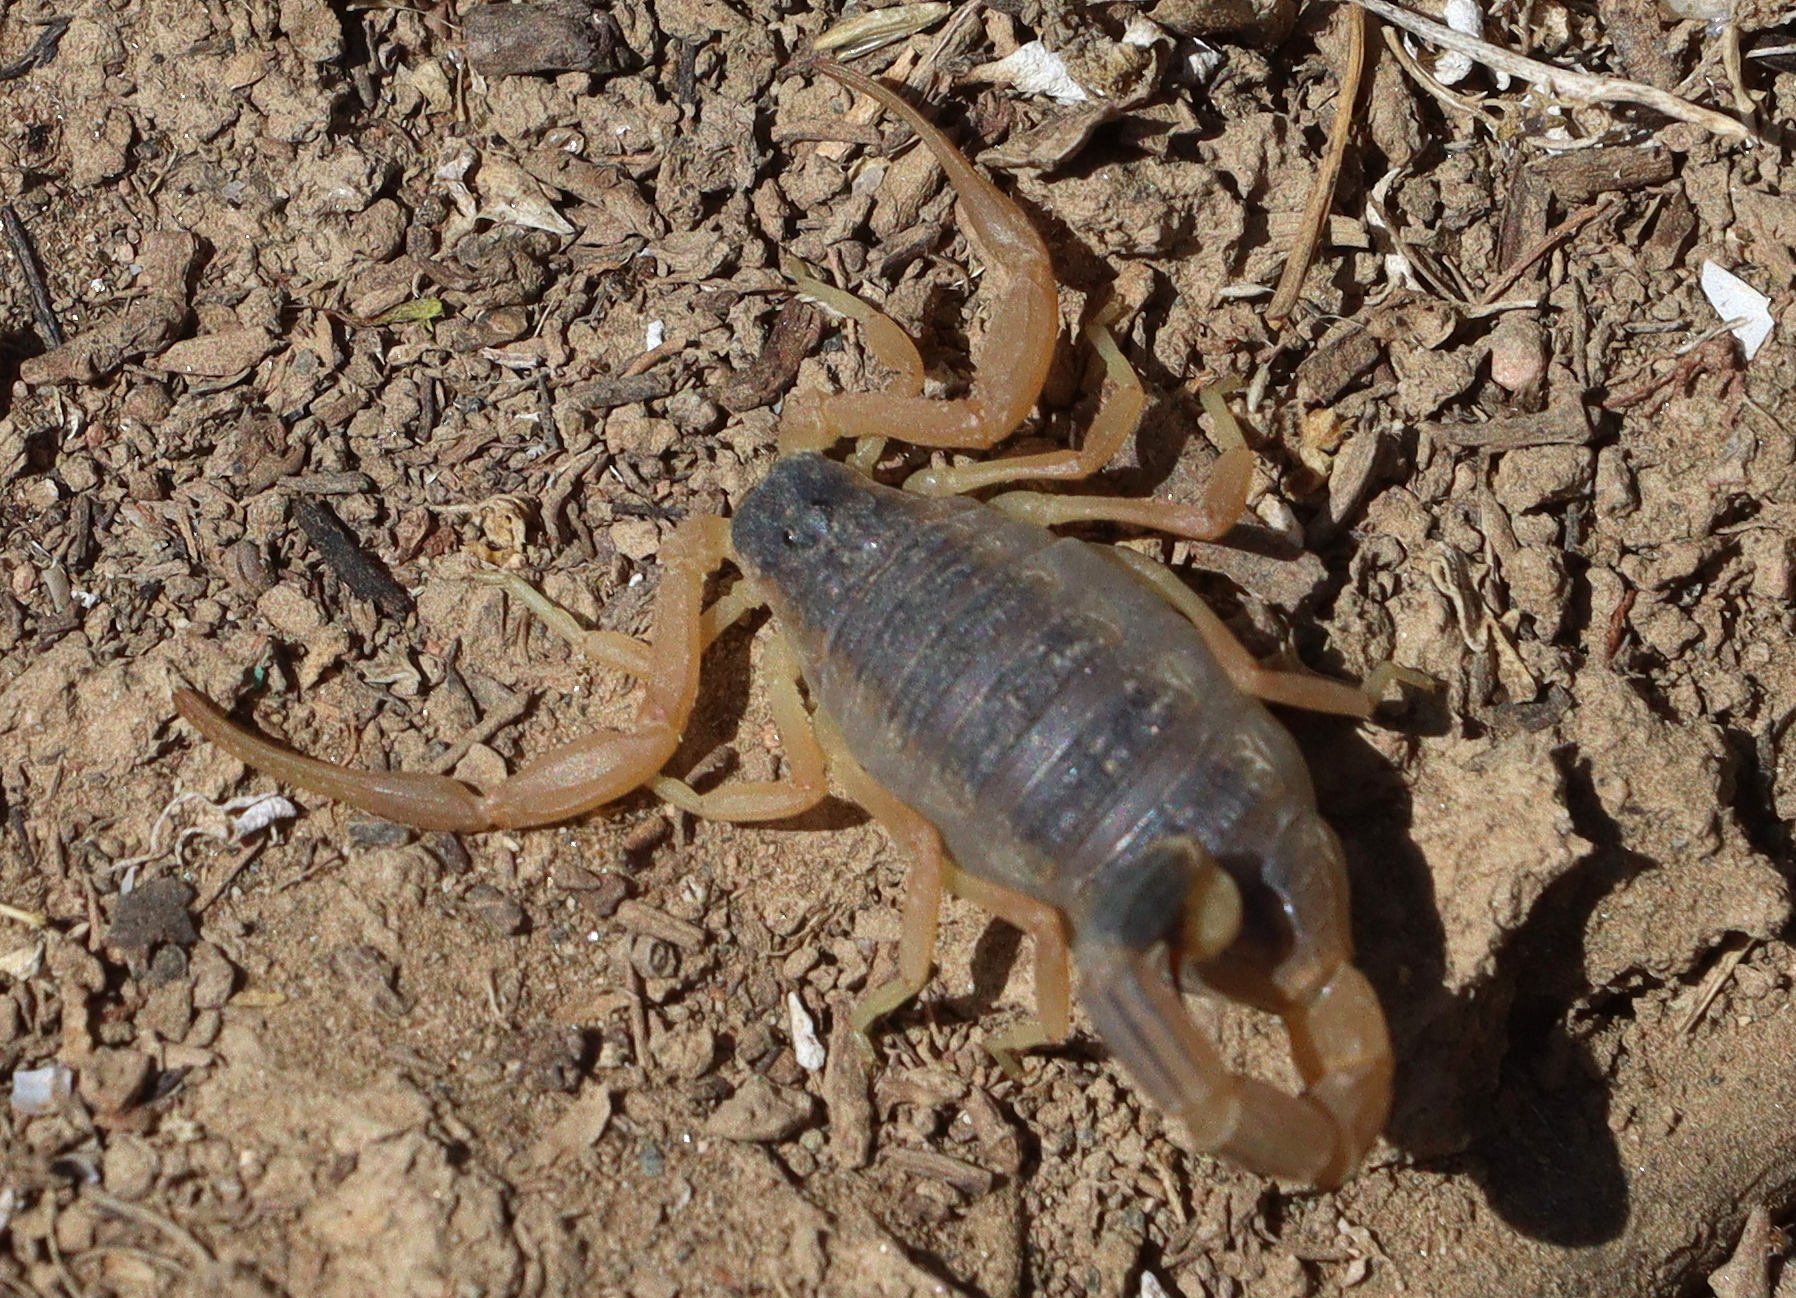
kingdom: Animalia
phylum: Arthropoda
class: Arachnida
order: Scorpiones
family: Buthidae
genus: Leiurus
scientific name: Leiurus haenggii
